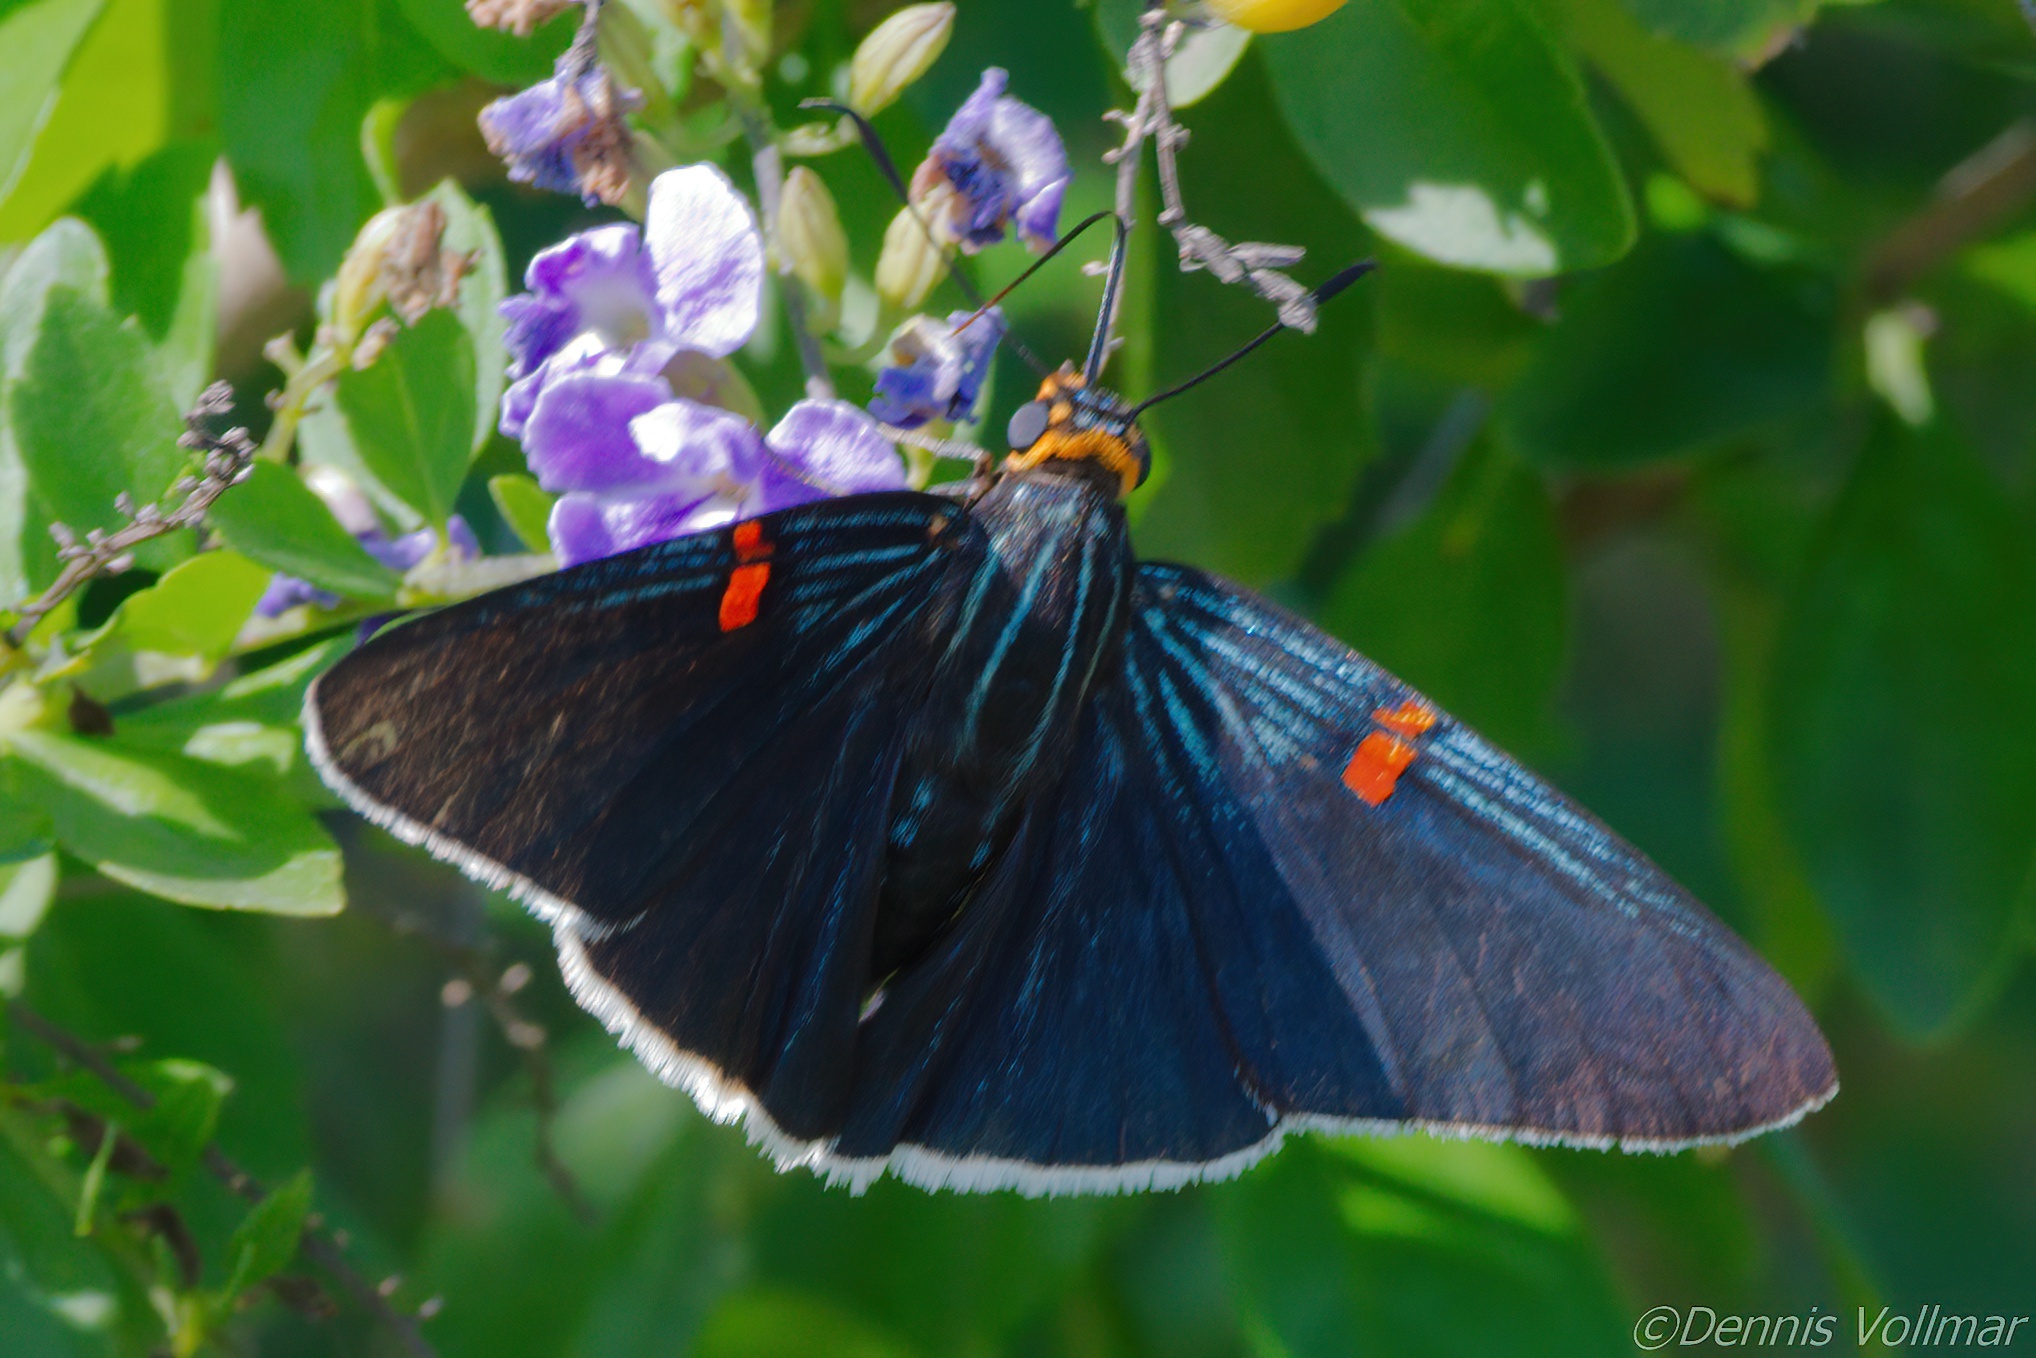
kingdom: Animalia
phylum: Arthropoda
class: Insecta
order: Lepidoptera
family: Hesperiidae
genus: Phocides
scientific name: Phocides lilea
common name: Guava skipper
